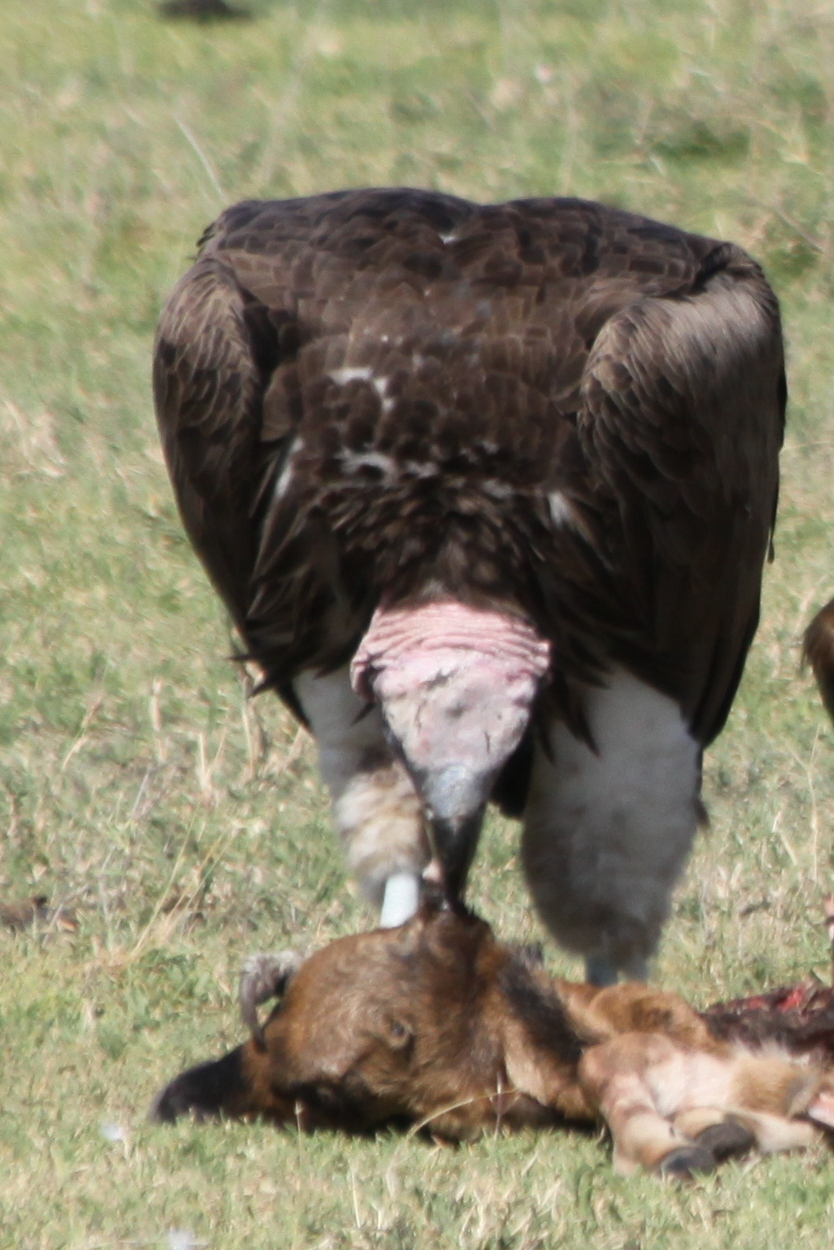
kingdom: Animalia
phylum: Chordata
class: Aves
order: Accipitriformes
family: Accipitridae
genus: Torgos
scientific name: Torgos tracheliotos
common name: Lappet-faced vulture
